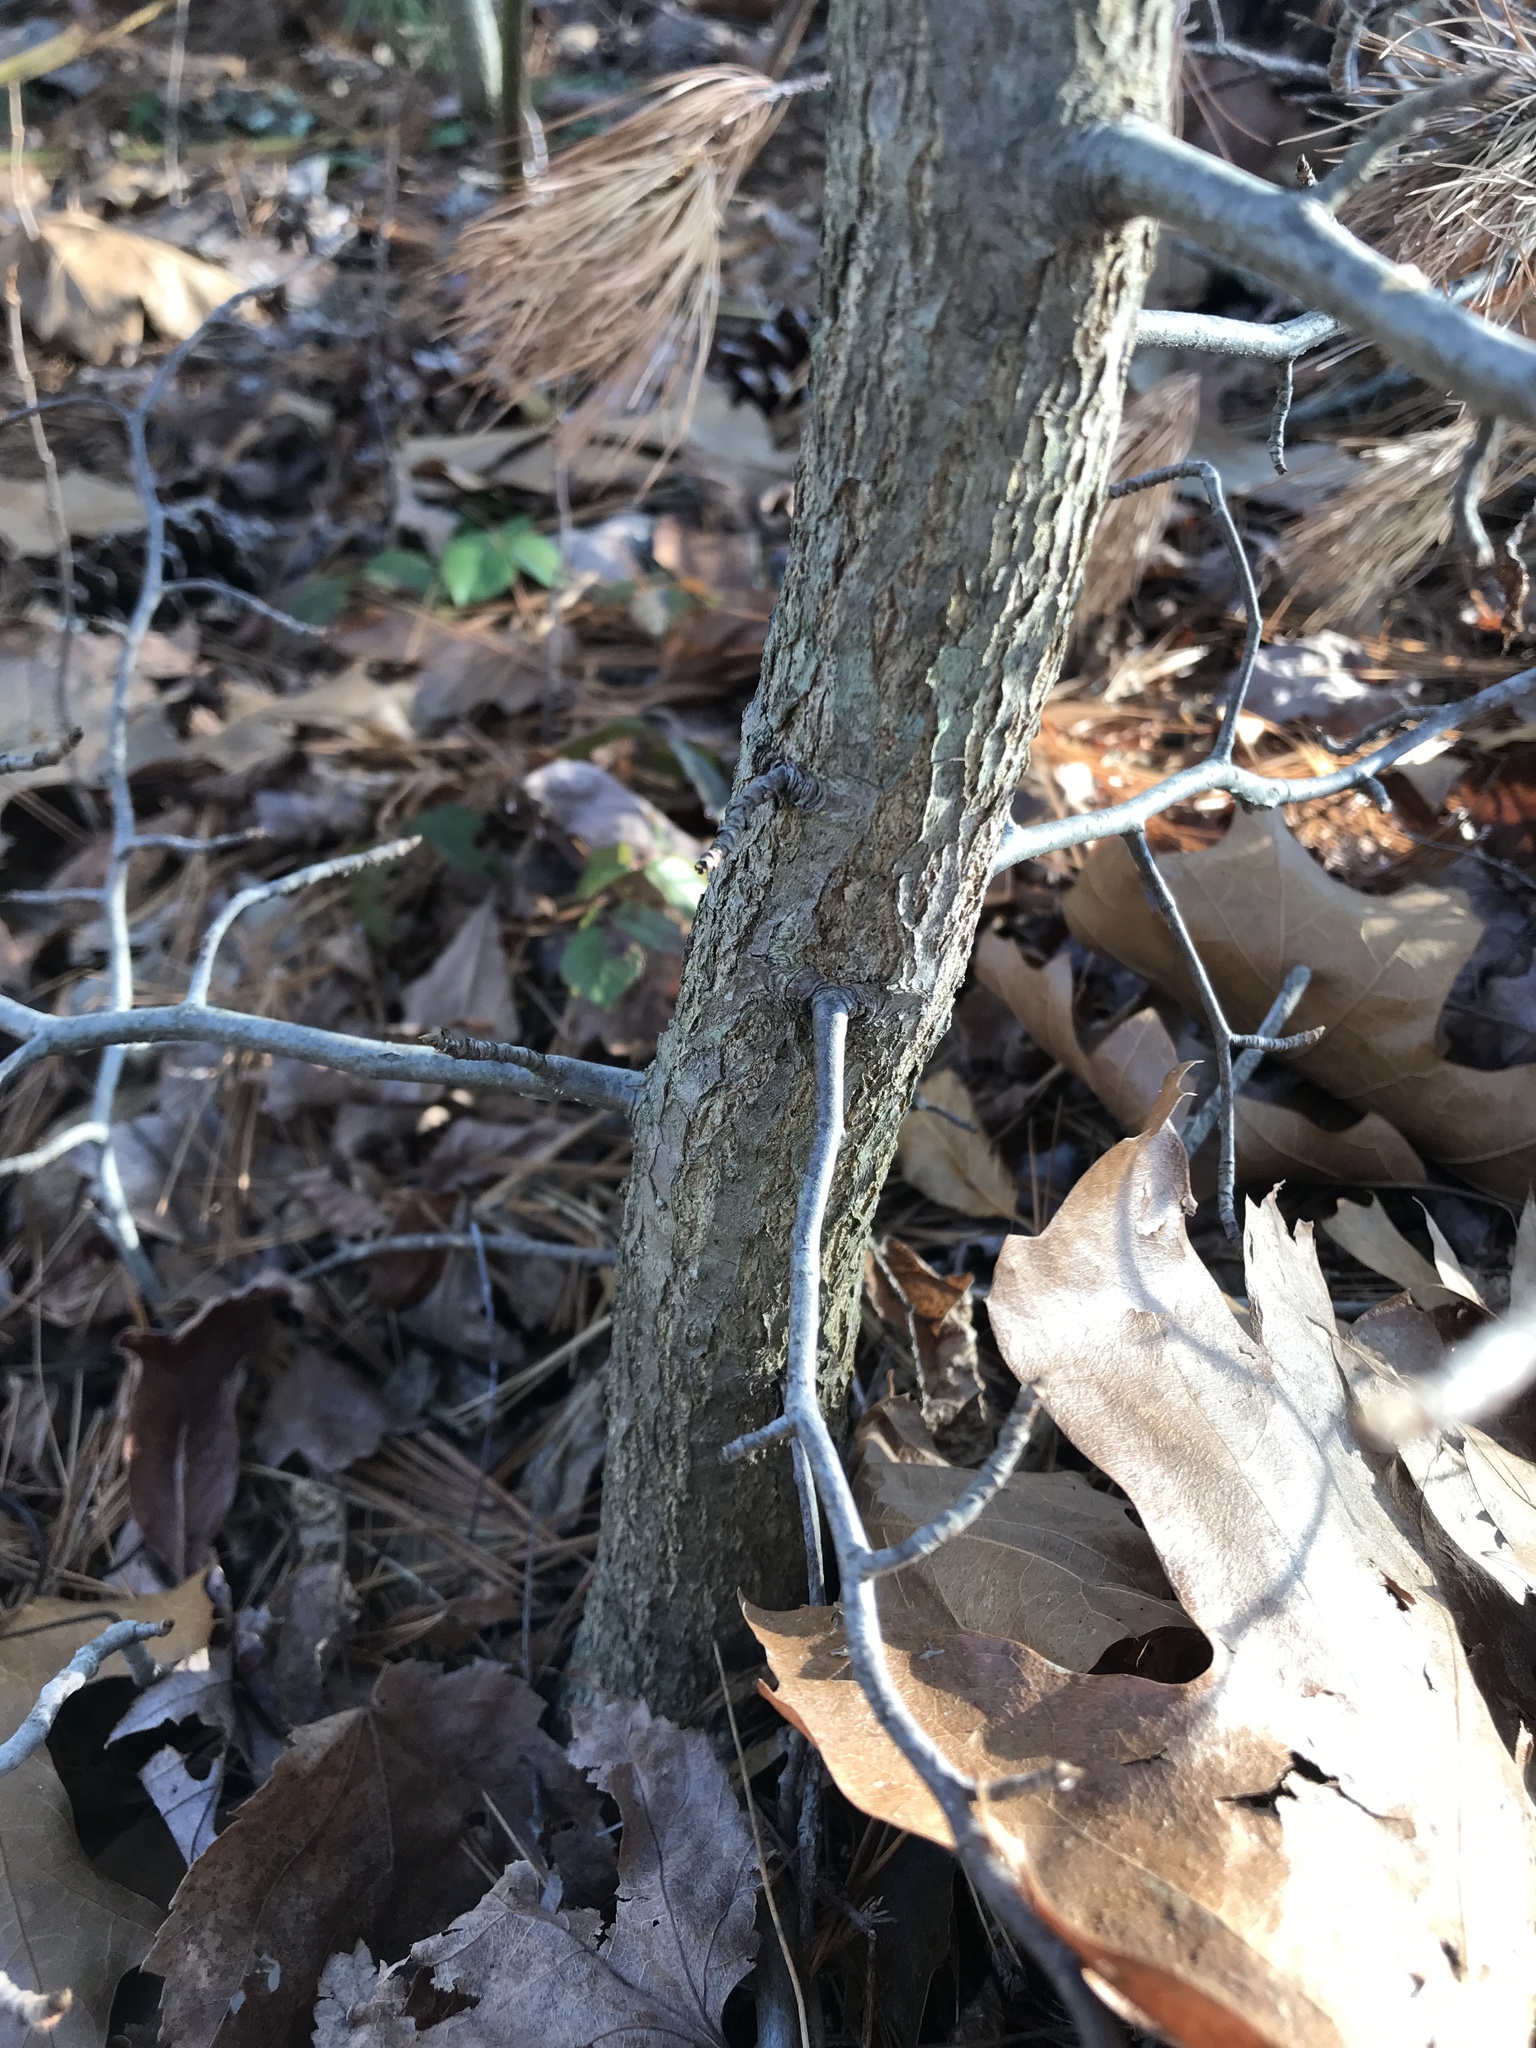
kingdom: Plantae
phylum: Tracheophyta
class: Magnoliopsida
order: Cornales
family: Nyssaceae
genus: Nyssa
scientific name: Nyssa sylvatica
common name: Black tupelo
